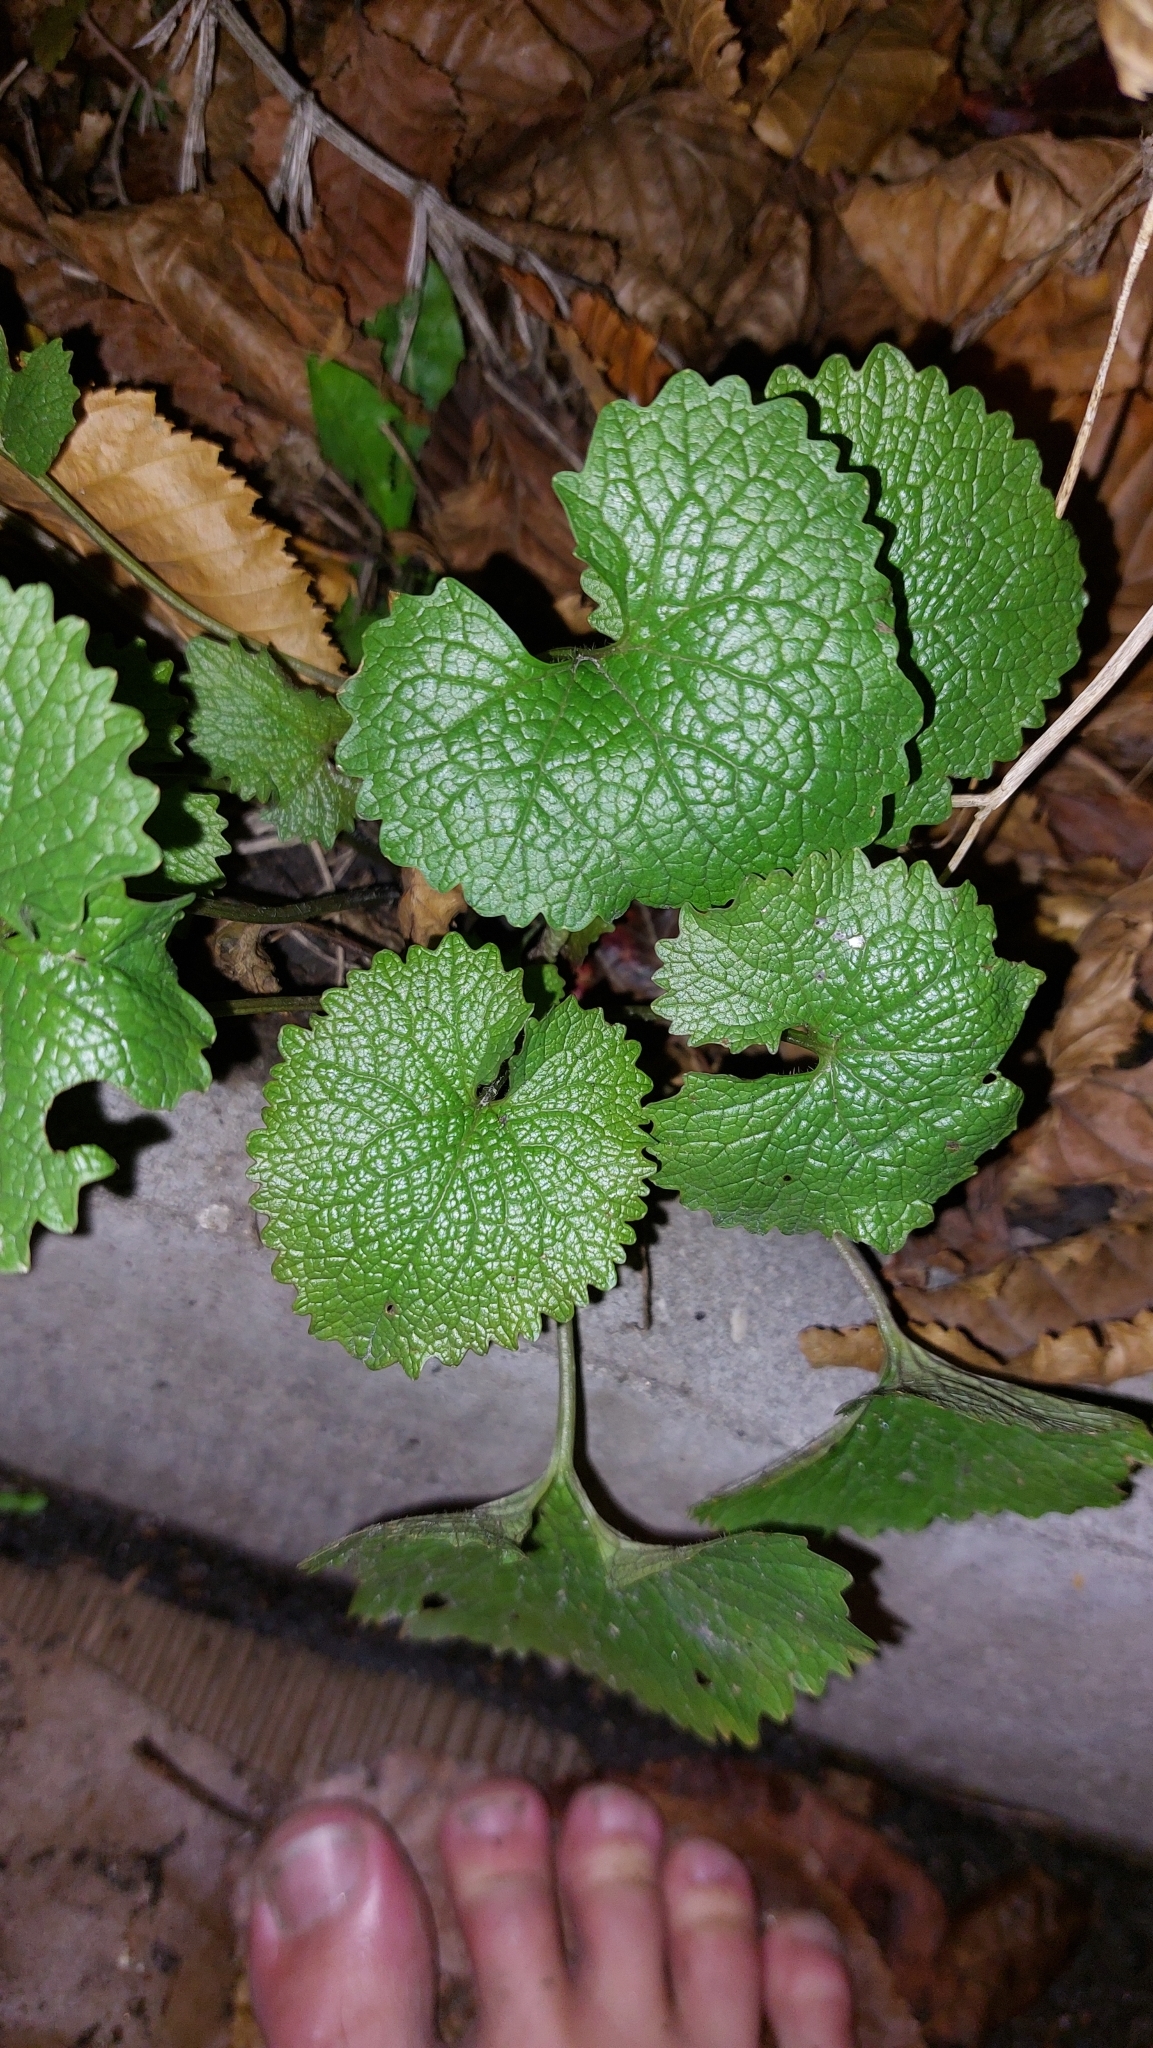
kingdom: Plantae
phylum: Tracheophyta
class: Magnoliopsida
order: Brassicales
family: Brassicaceae
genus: Alliaria
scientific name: Alliaria petiolata
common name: Garlic mustard
